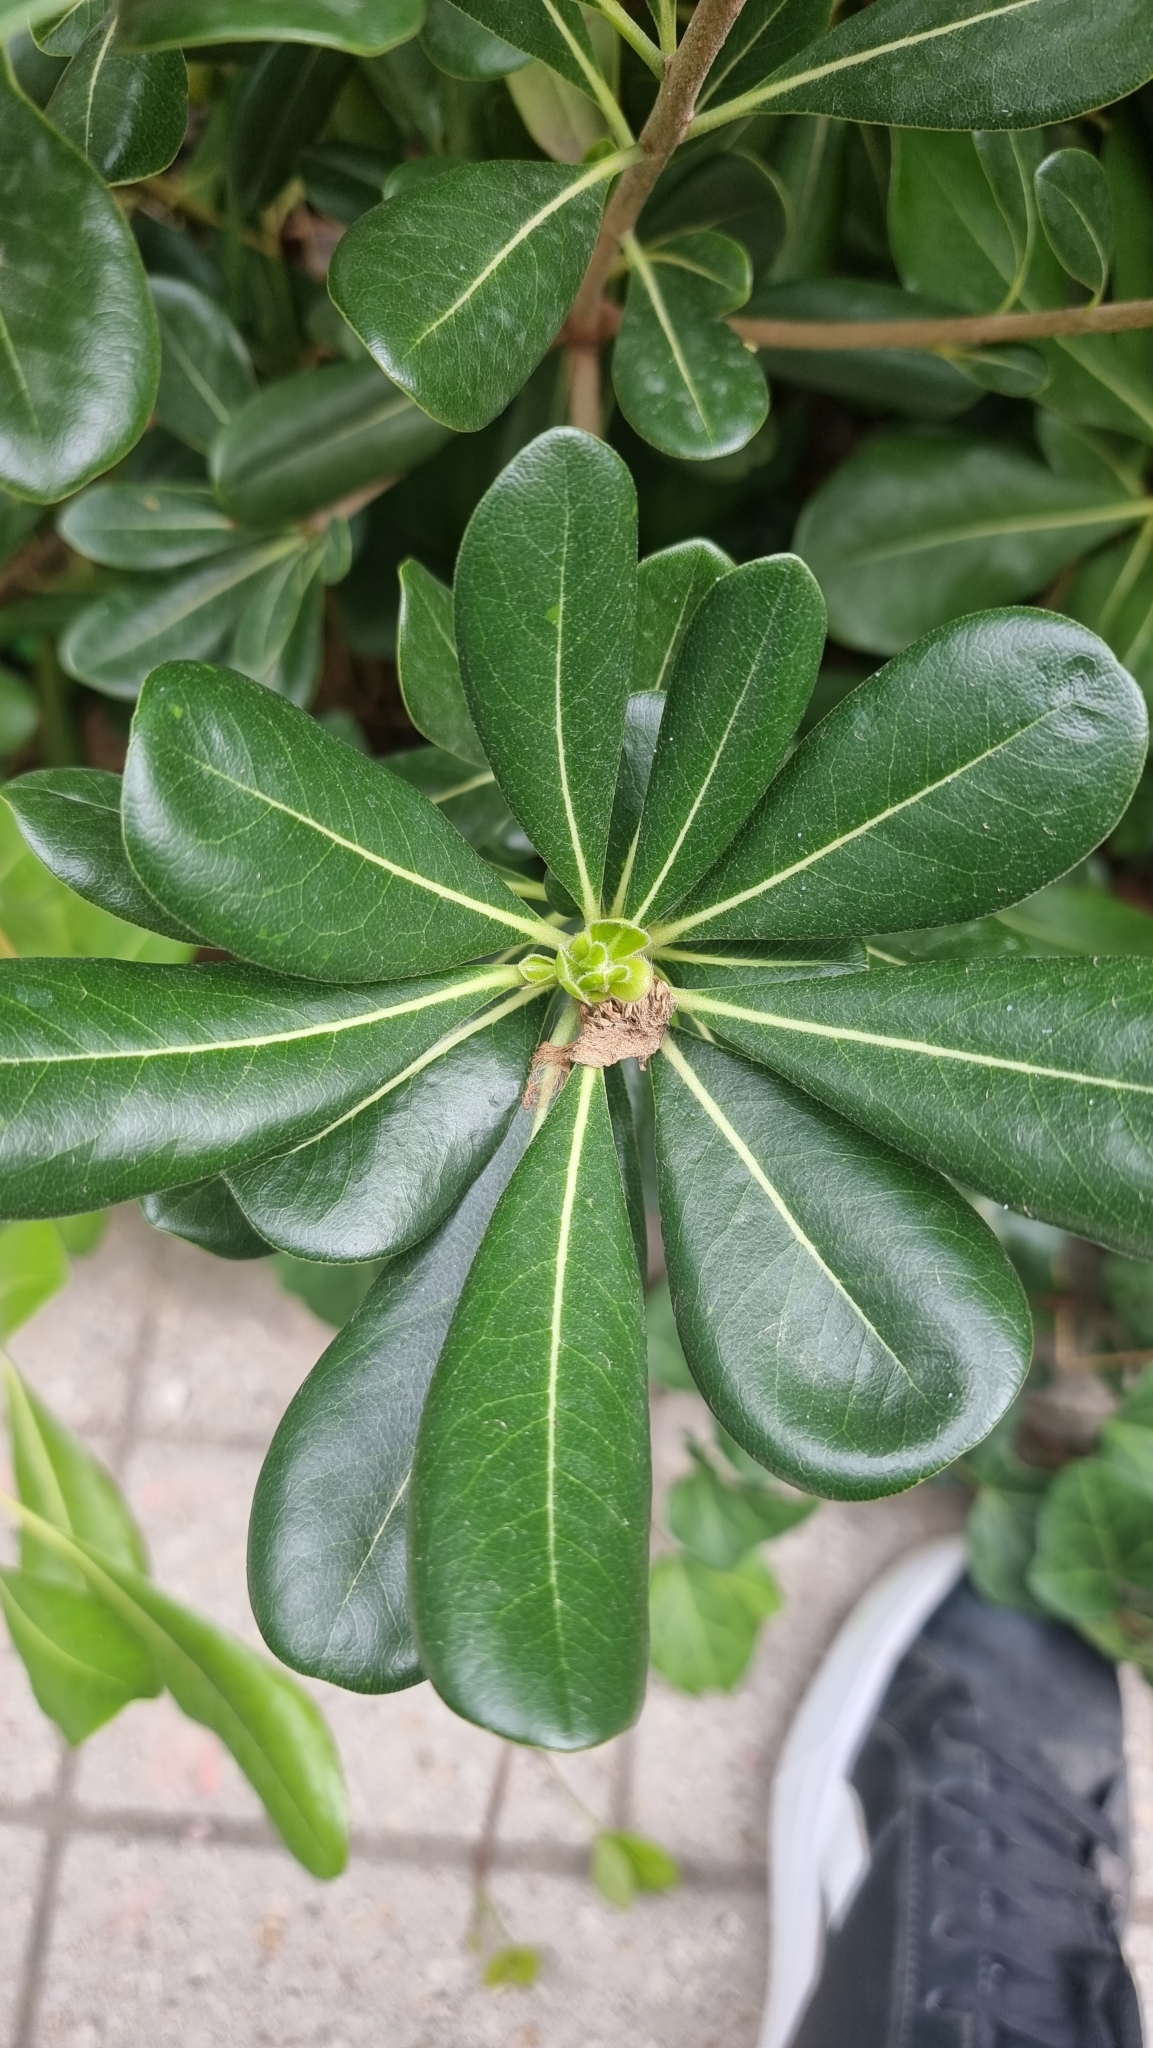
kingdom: Plantae
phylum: Tracheophyta
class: Magnoliopsida
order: Apiales
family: Pittosporaceae
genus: Pittosporum
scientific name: Pittosporum tobira
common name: Japanese cheesewood
